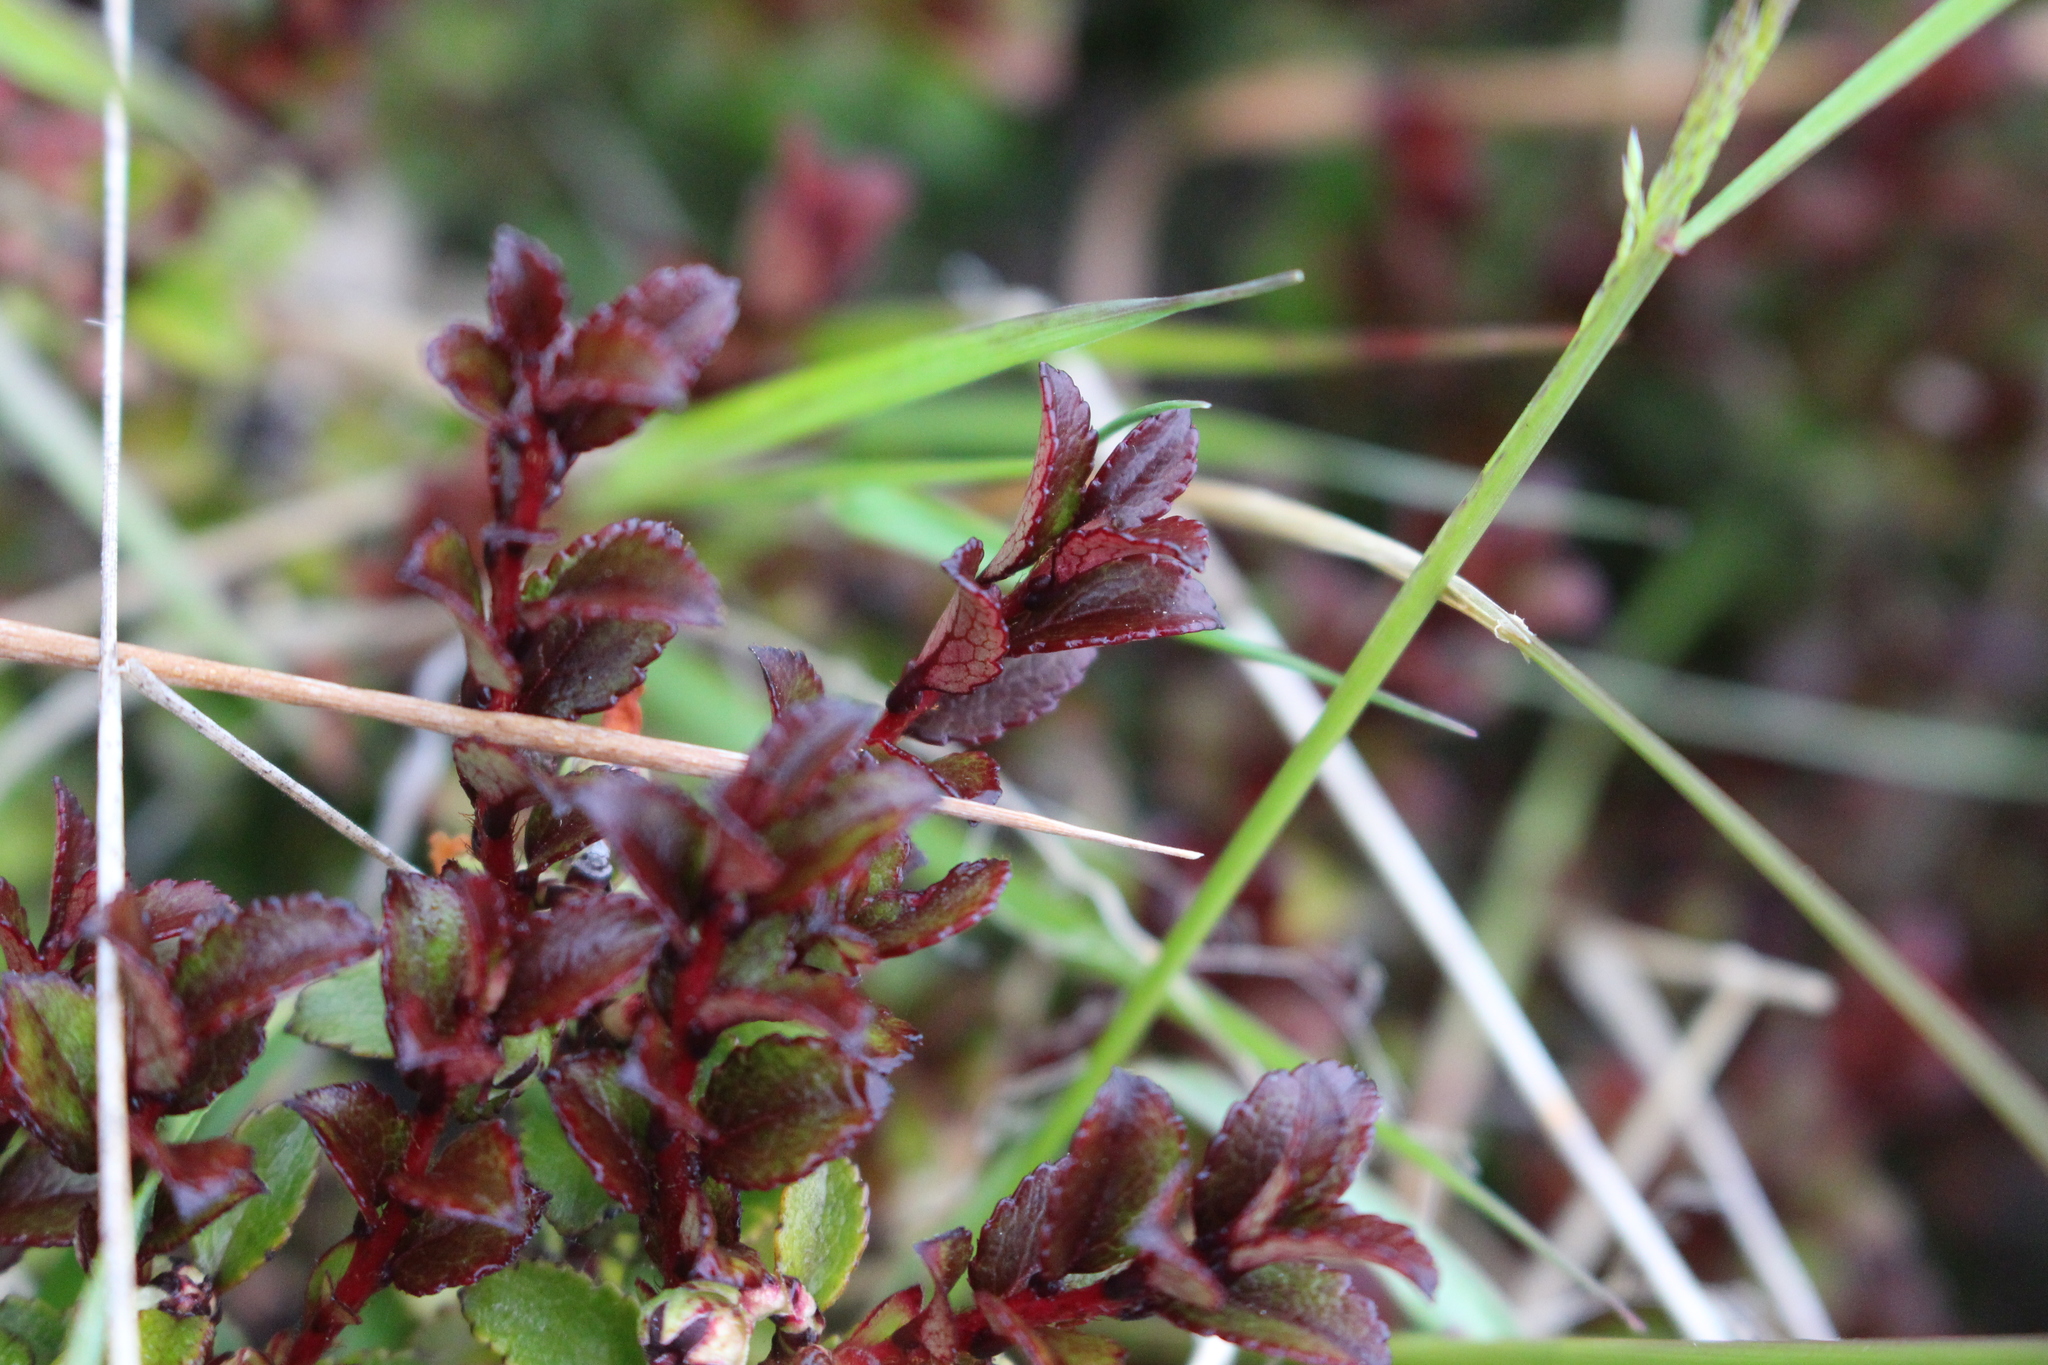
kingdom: Plantae
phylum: Tracheophyta
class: Magnoliopsida
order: Ericales
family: Ericaceae
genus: Gaultheria
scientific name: Gaultheria depressa
